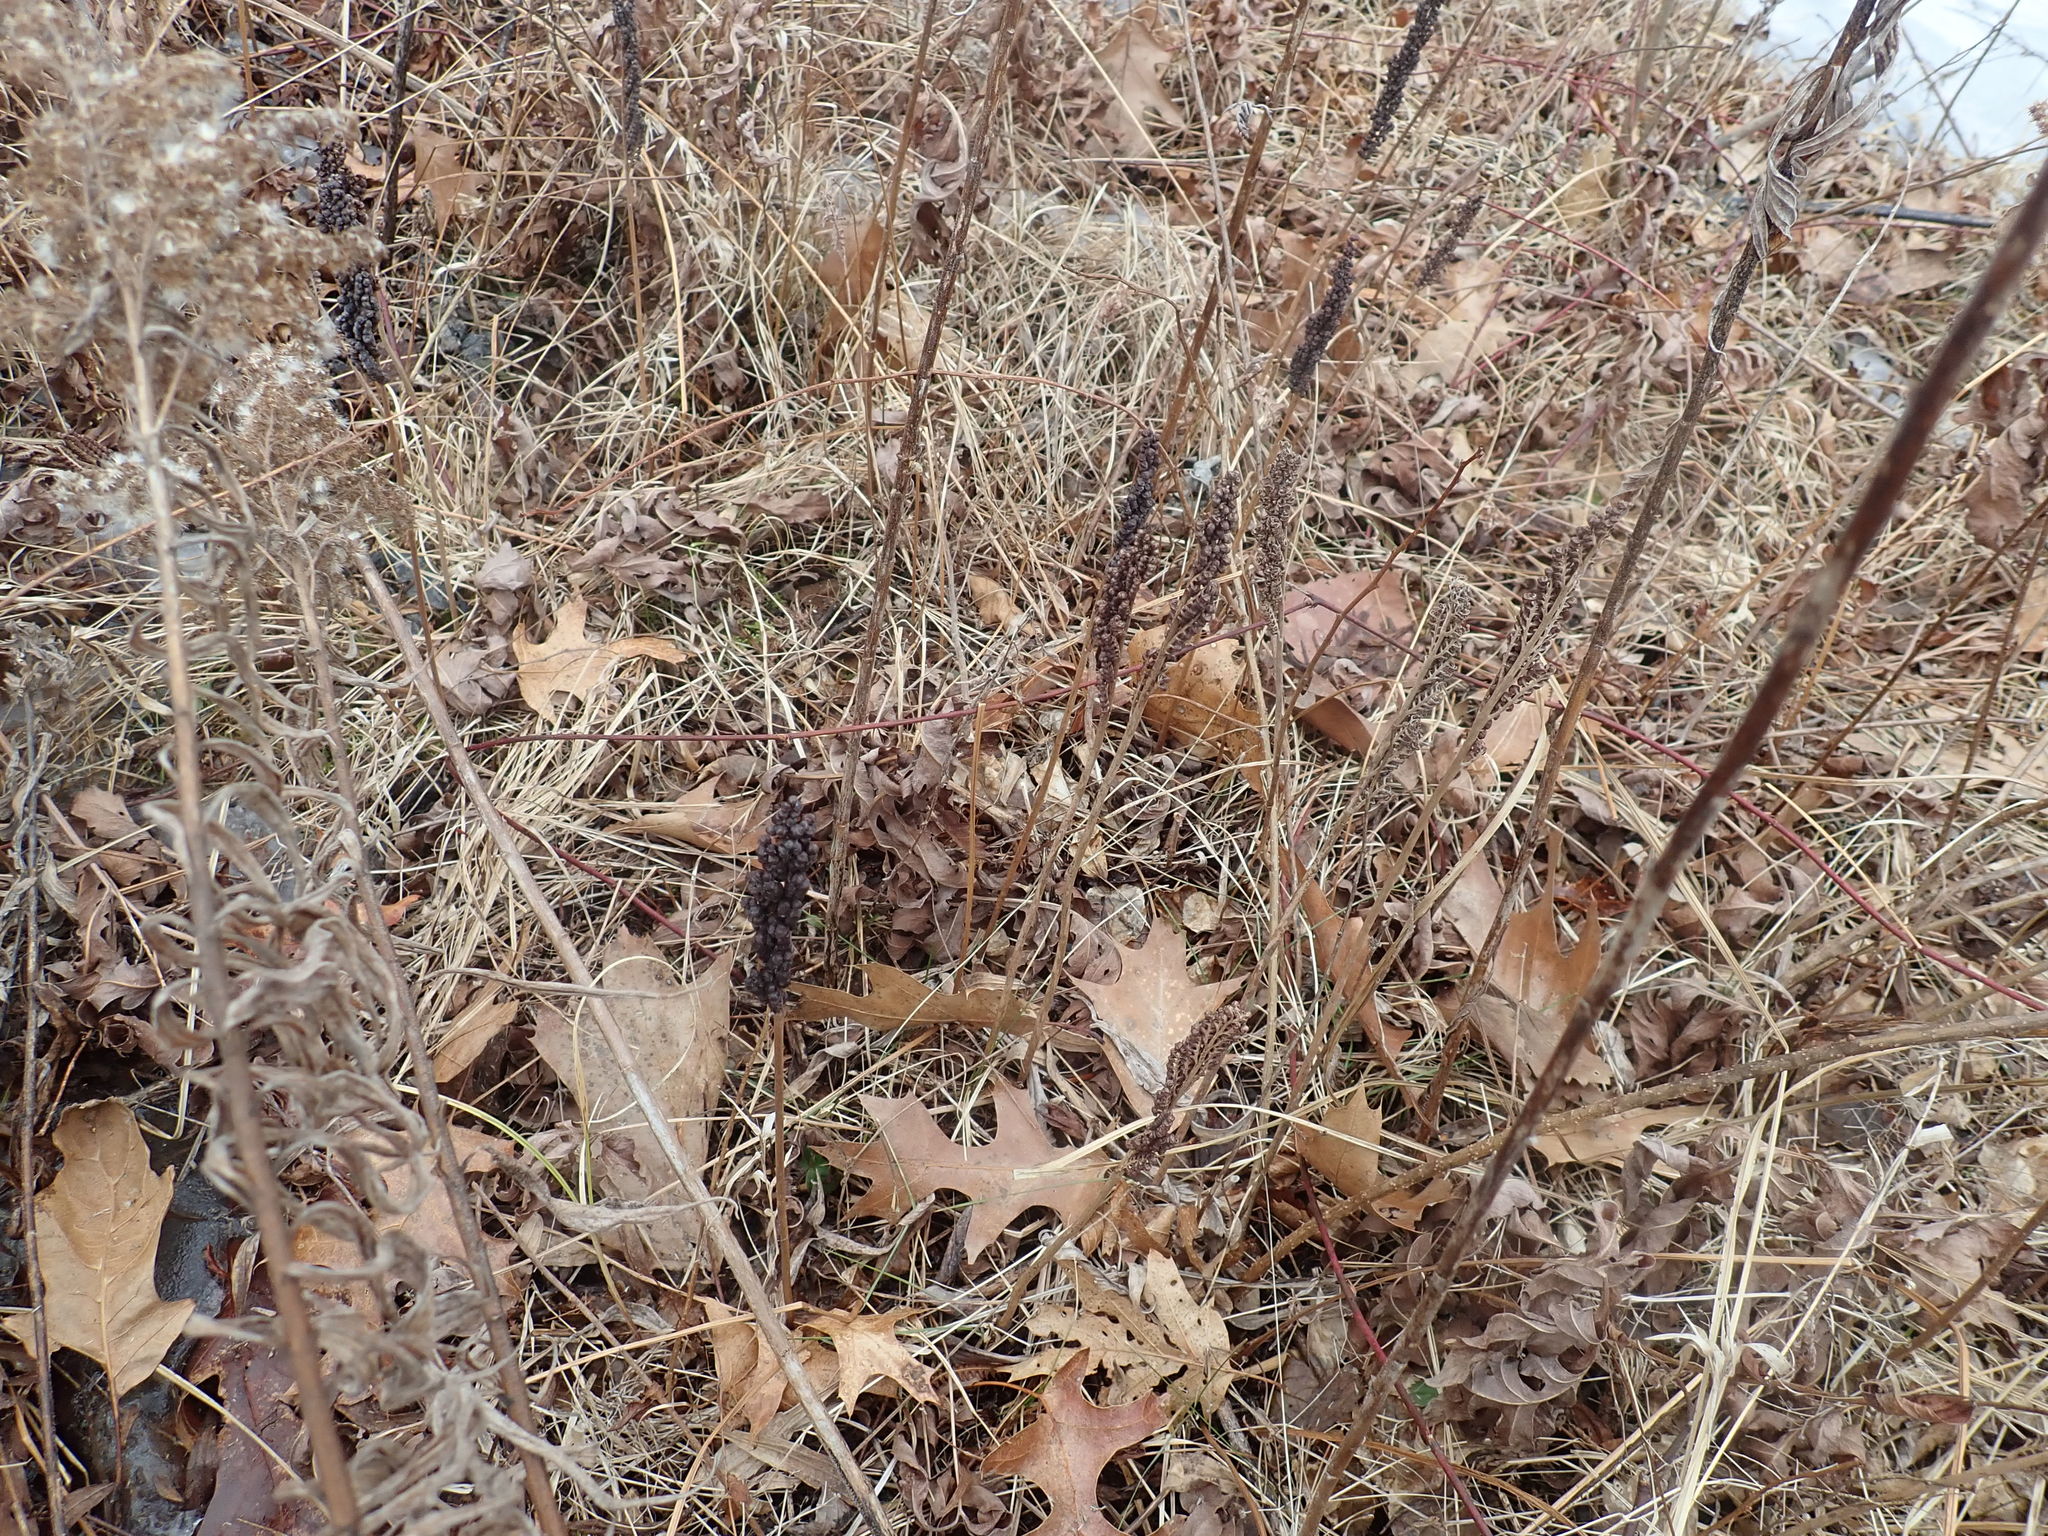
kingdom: Plantae
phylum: Tracheophyta
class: Polypodiopsida
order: Polypodiales
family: Onocleaceae
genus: Onoclea
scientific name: Onoclea sensibilis
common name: Sensitive fern
